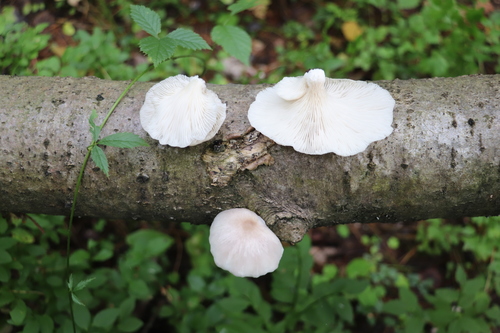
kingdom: Fungi
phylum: Basidiomycota
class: Agaricomycetes
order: Agaricales
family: Pleurotaceae
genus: Pleurotus
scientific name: Pleurotus pulmonarius
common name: Pale oyster
